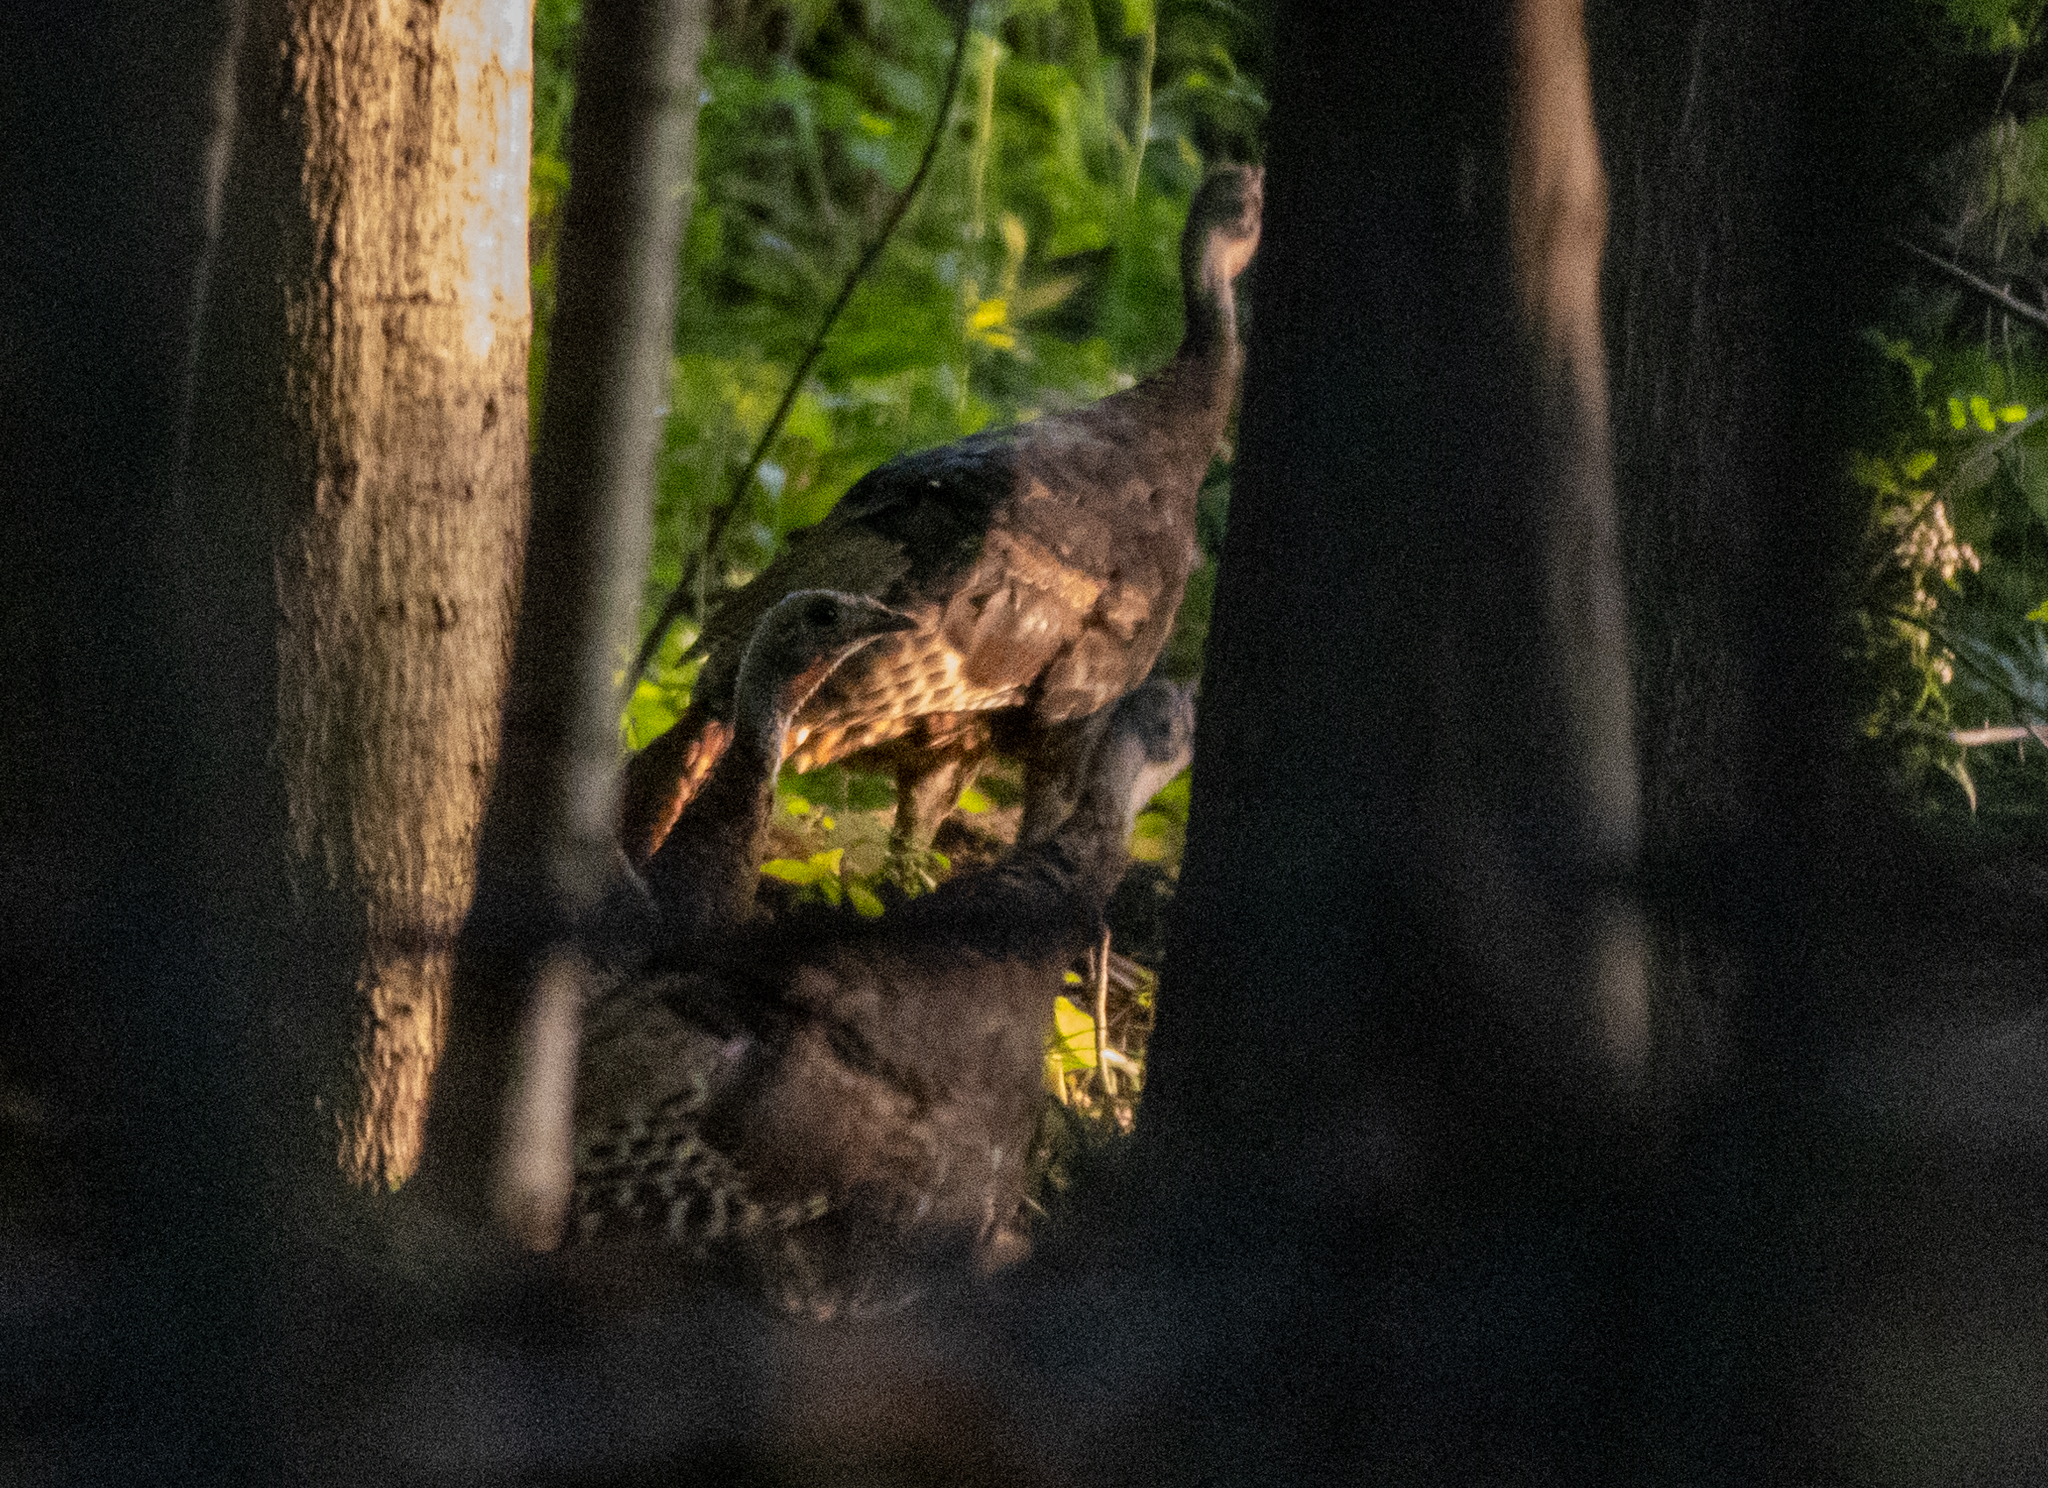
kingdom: Animalia
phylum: Chordata
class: Aves
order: Galliformes
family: Phasianidae
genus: Meleagris
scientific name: Meleagris gallopavo
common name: Wild turkey
